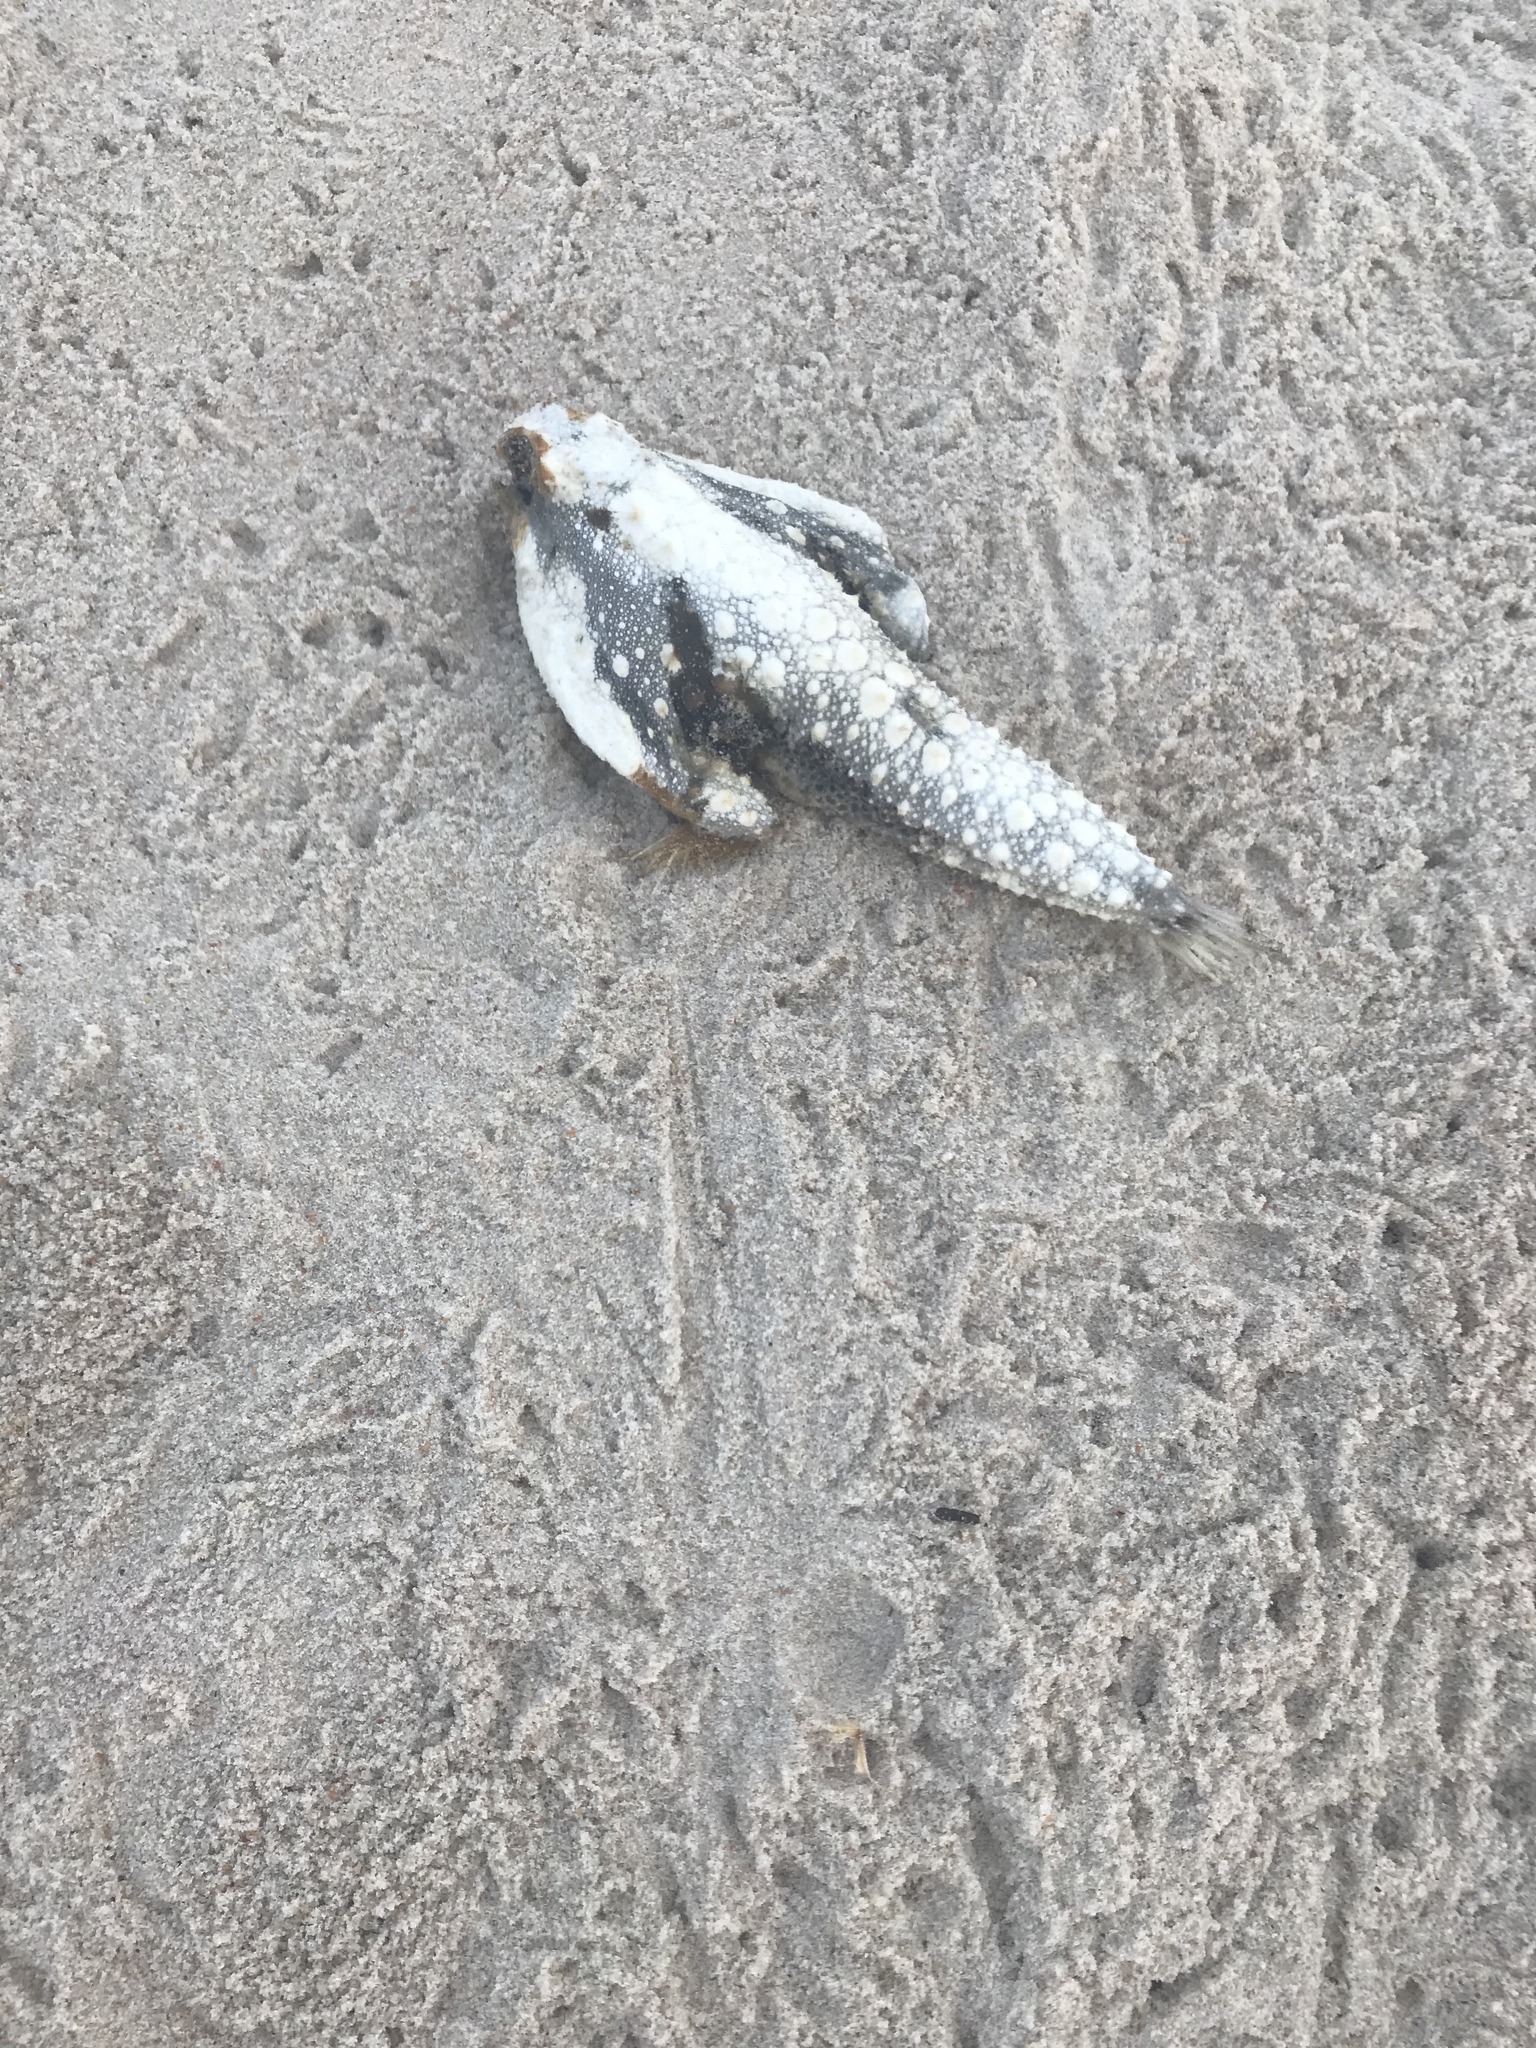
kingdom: Animalia
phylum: Chordata
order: Lophiiformes
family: Ogcocephalidae
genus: Ogcocephalus
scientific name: Ogcocephalus cubifrons
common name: Polka-dot batfish
